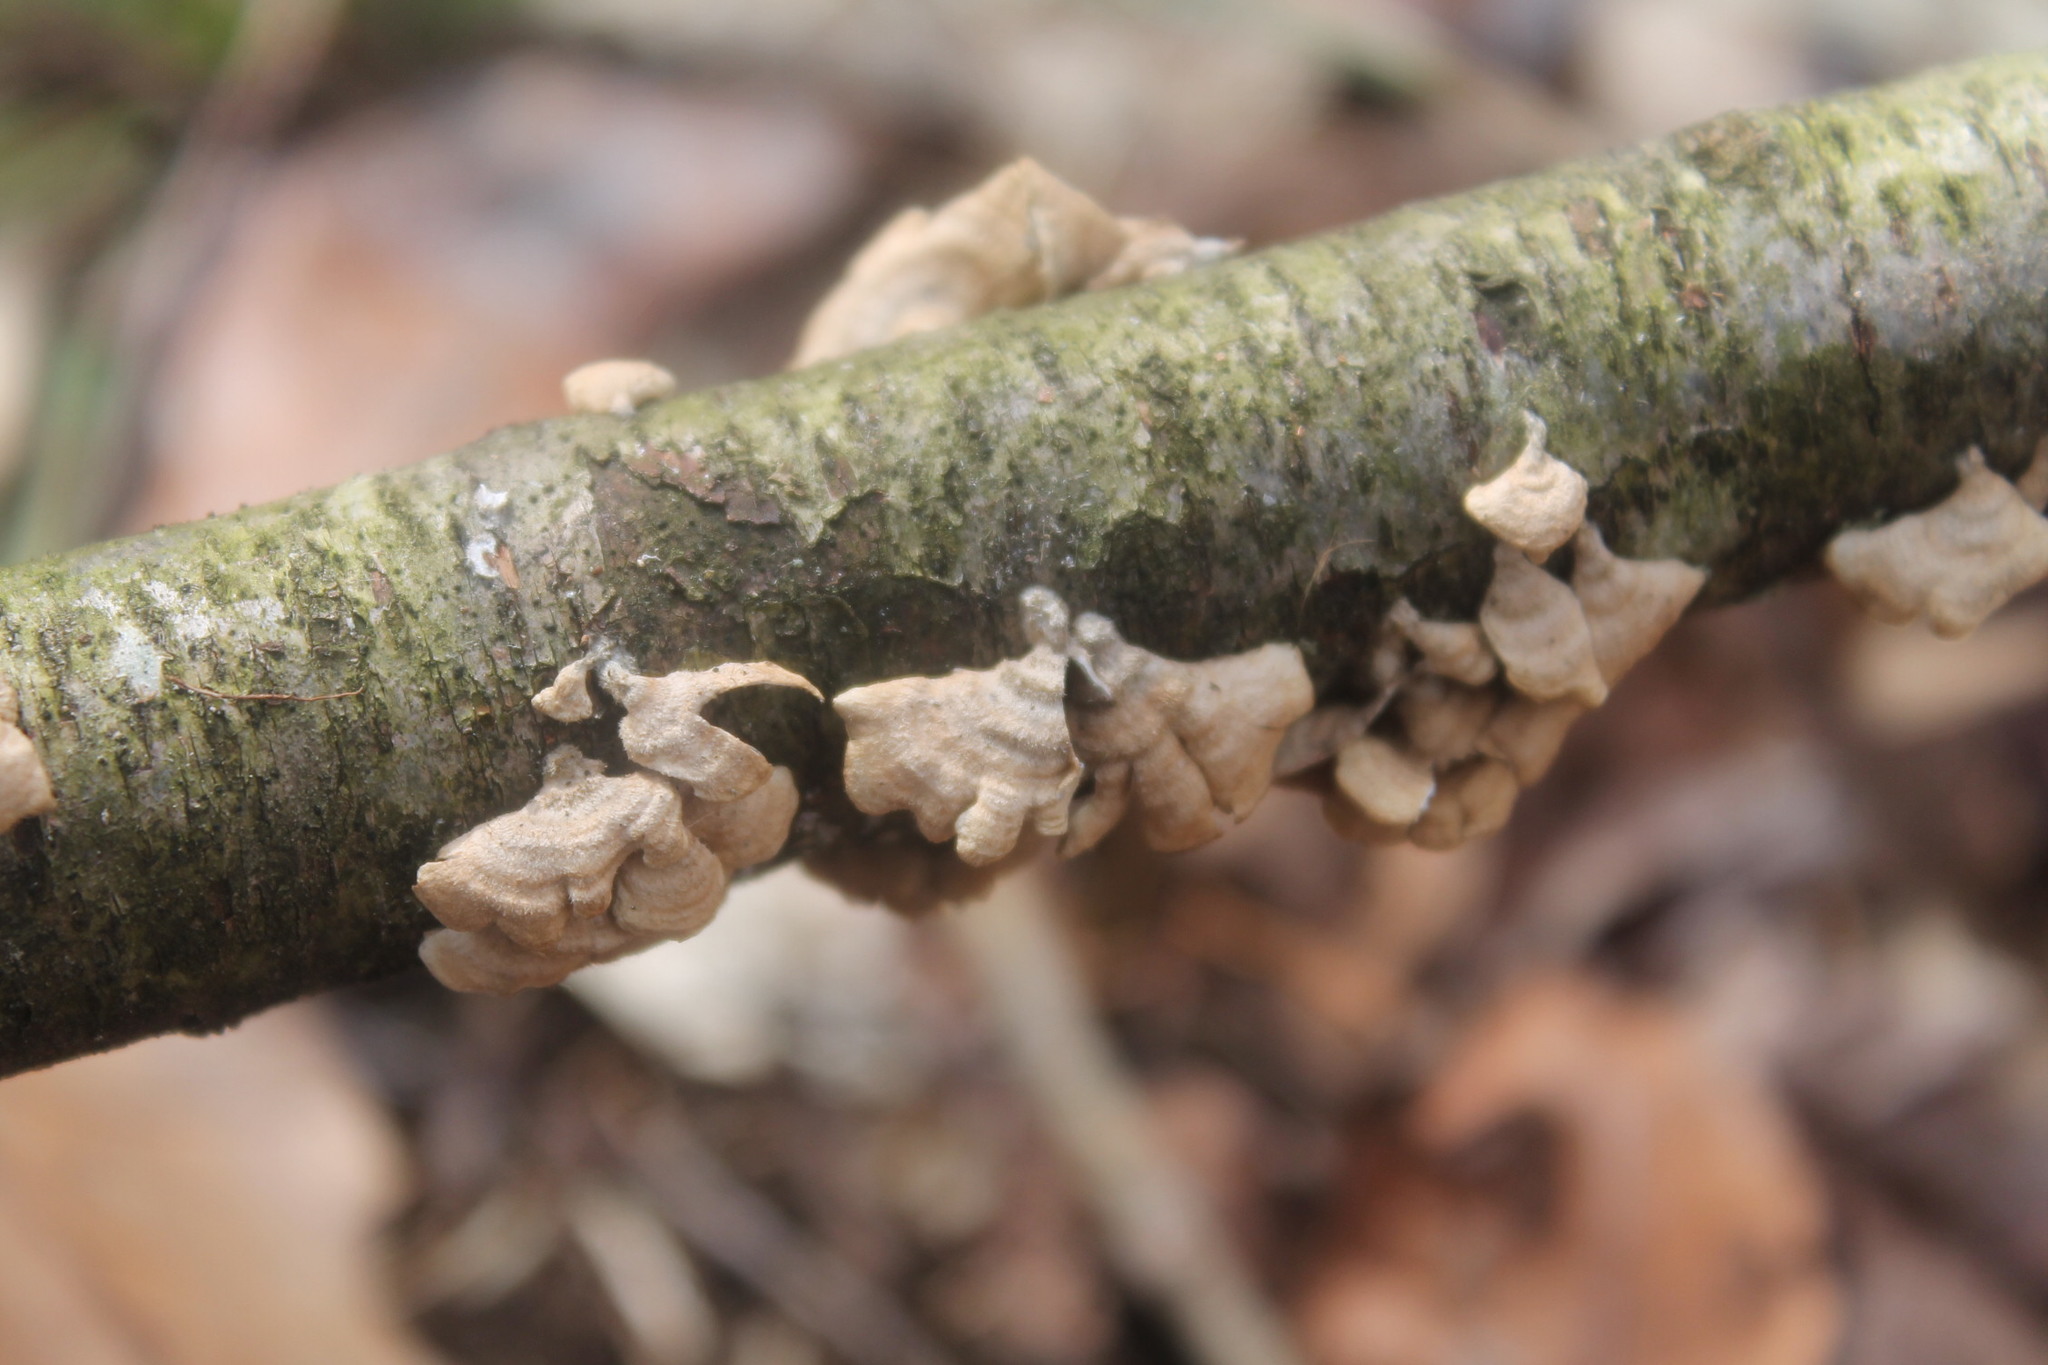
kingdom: Fungi
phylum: Basidiomycota
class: Agaricomycetes
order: Amylocorticiales
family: Amylocorticiaceae
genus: Plicaturopsis
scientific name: Plicaturopsis crispa
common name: Crimped gill
